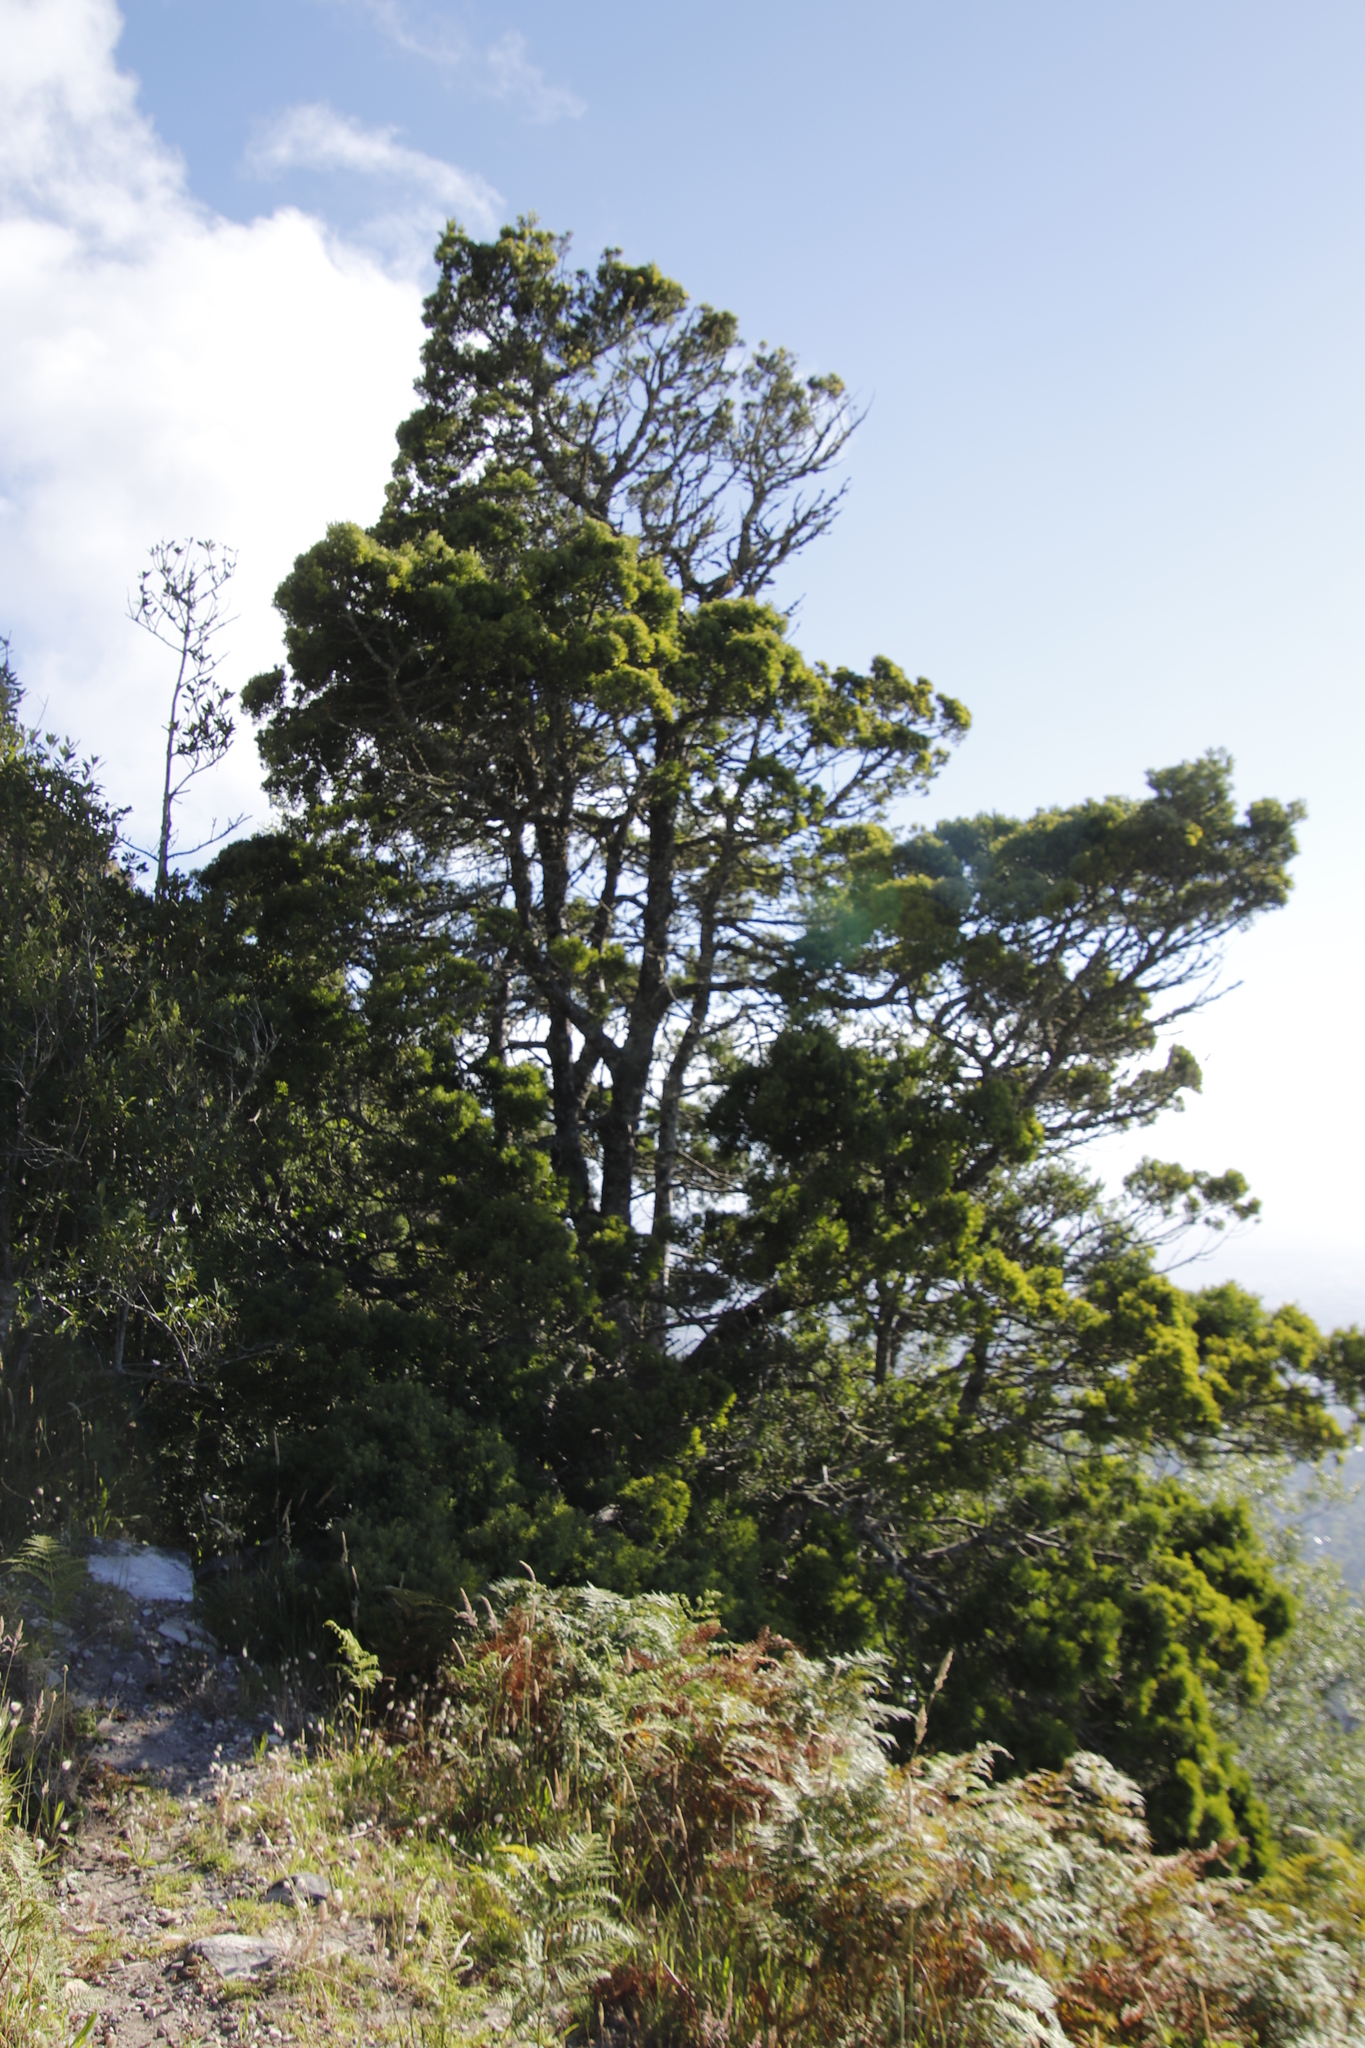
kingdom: Plantae
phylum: Tracheophyta
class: Pinopsida
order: Pinales
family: Podocarpaceae
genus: Afrocarpus
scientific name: Afrocarpus falcatus
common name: Bastard yellowwood
